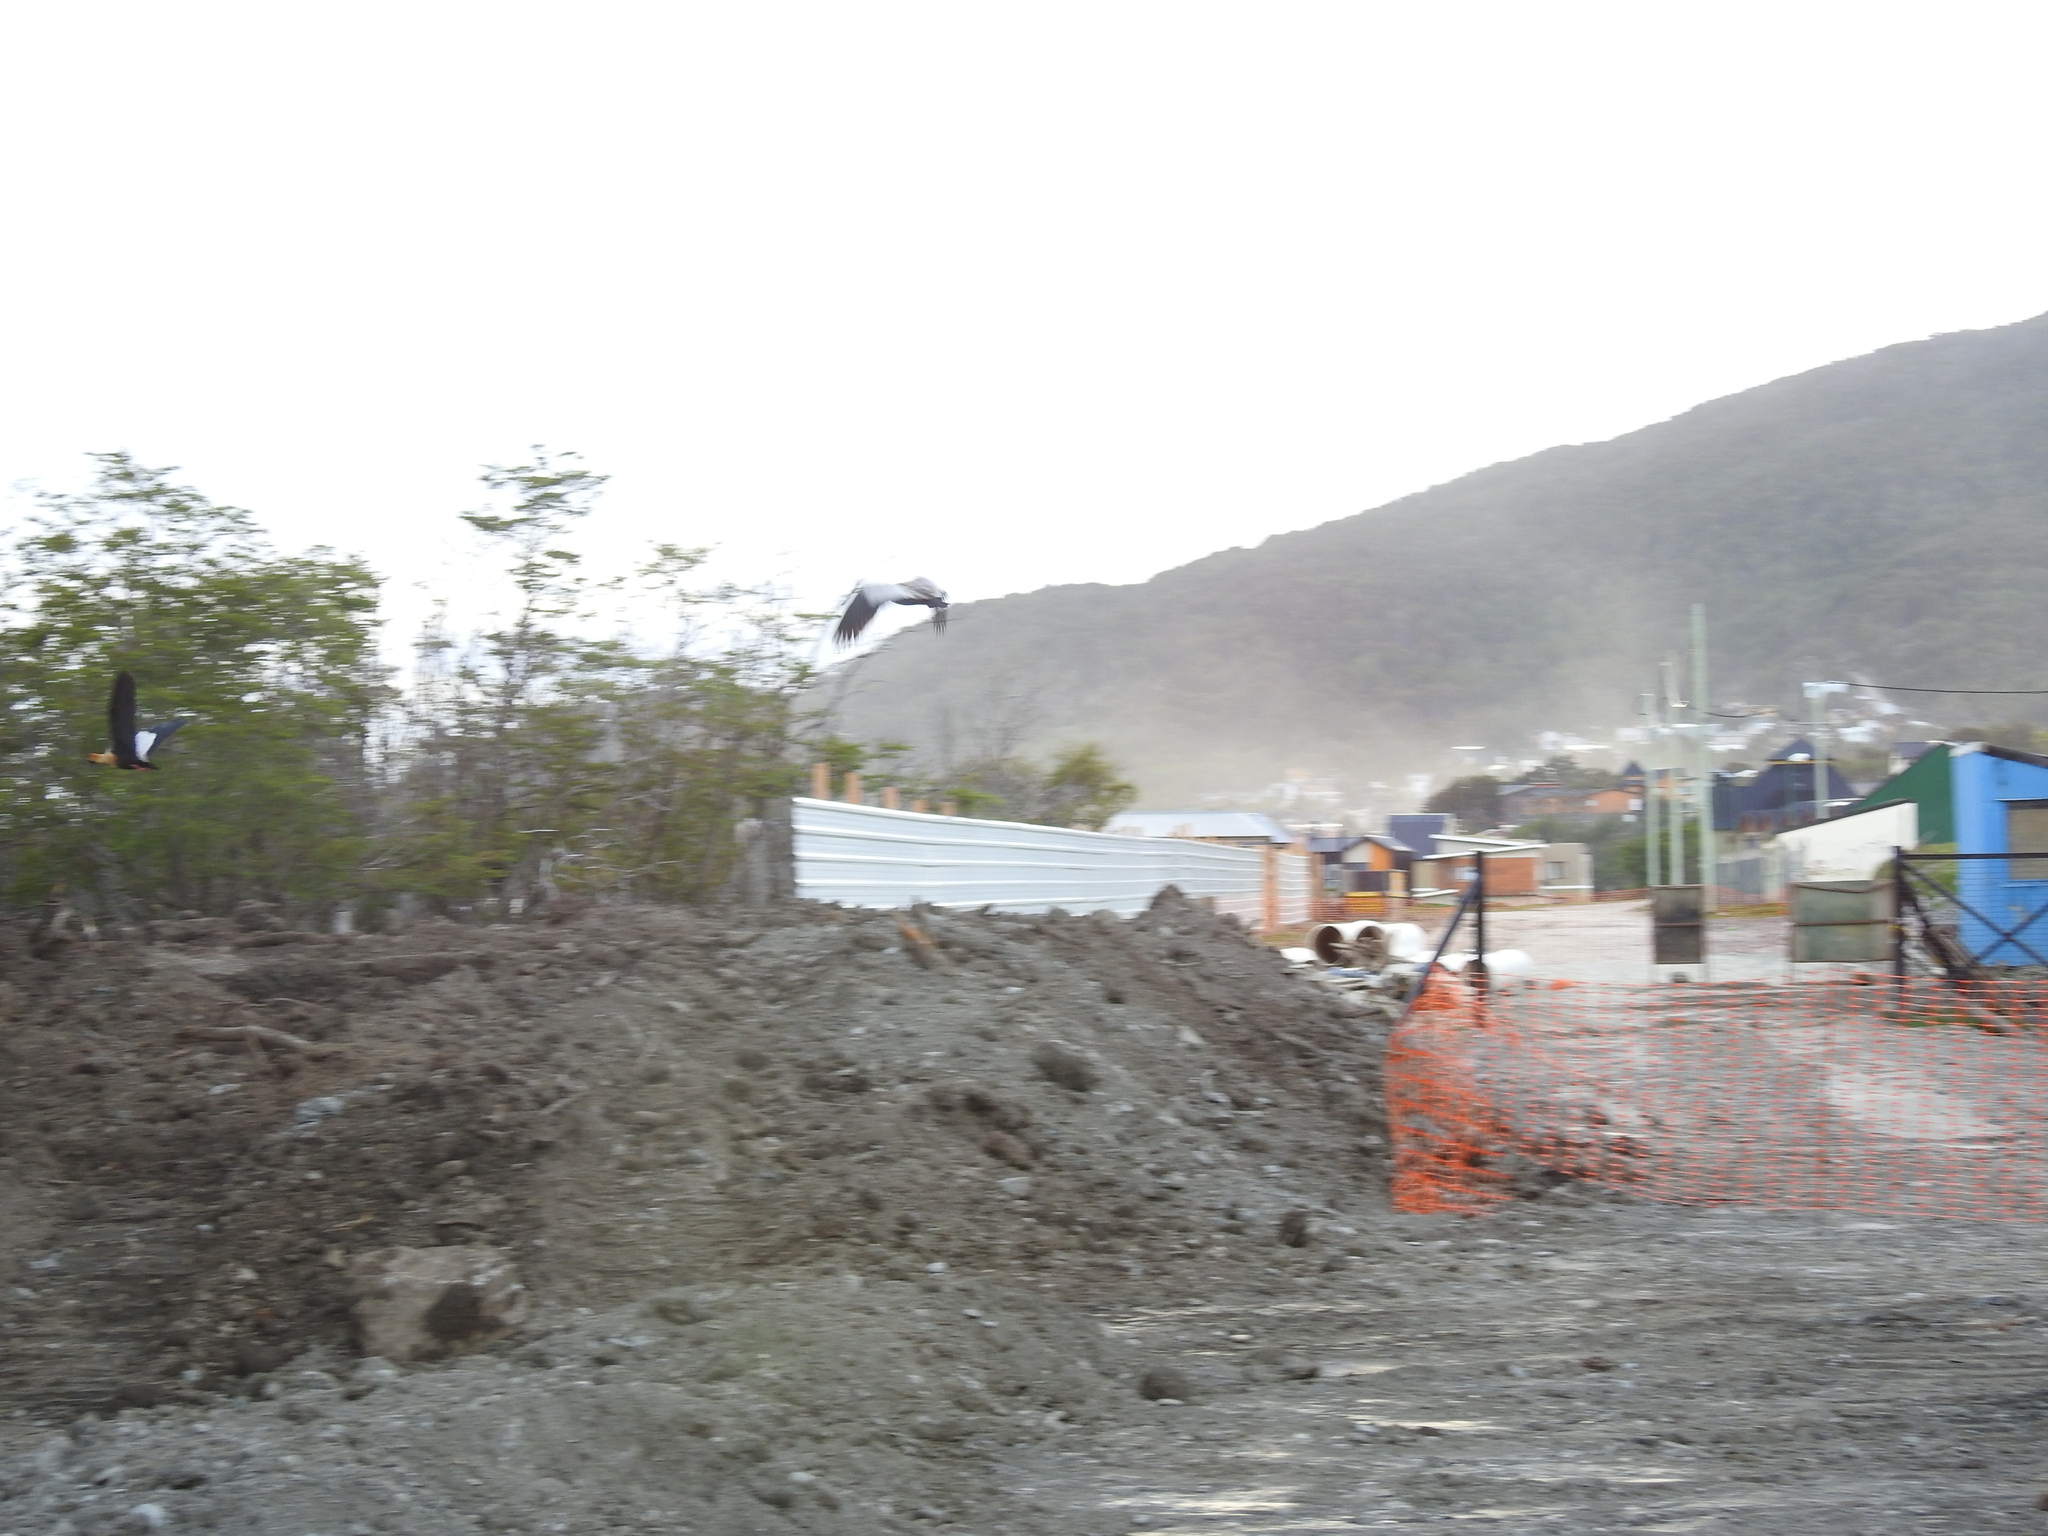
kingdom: Animalia
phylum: Chordata
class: Aves
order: Pelecaniformes
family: Threskiornithidae
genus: Theristicus
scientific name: Theristicus melanopis
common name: Black-faced ibis
